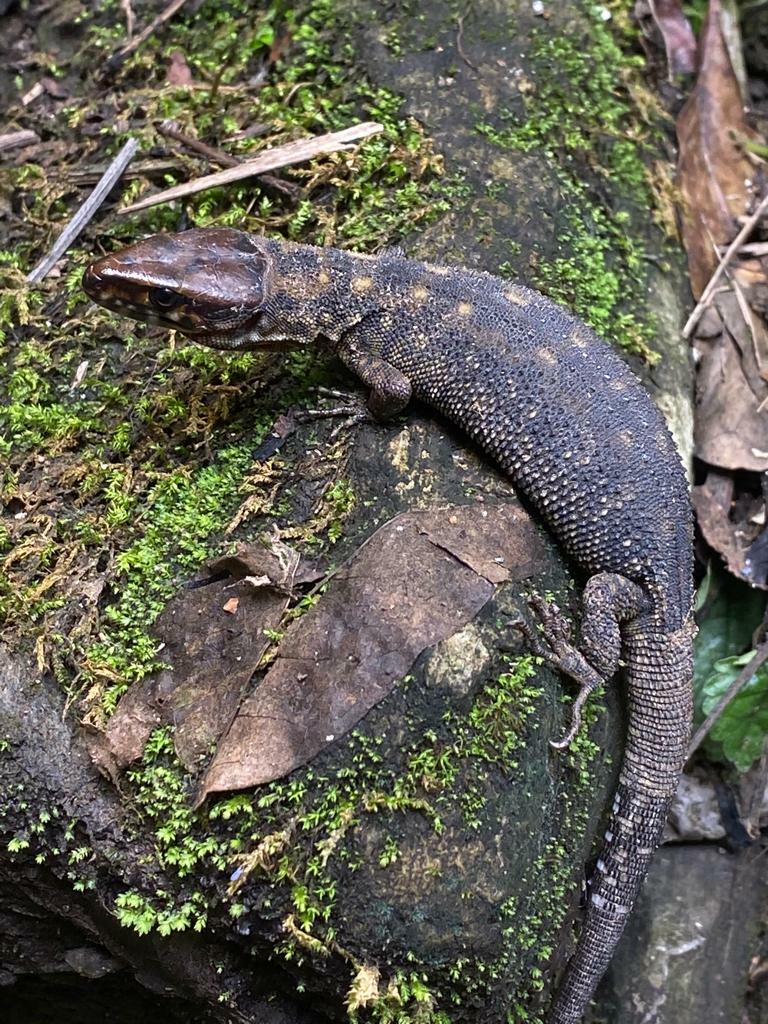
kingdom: Animalia
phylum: Chordata
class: Squamata
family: Xantusiidae
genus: Lepidophyma
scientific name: Lepidophyma sylvaticum
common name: Madrean tropical night lizard
